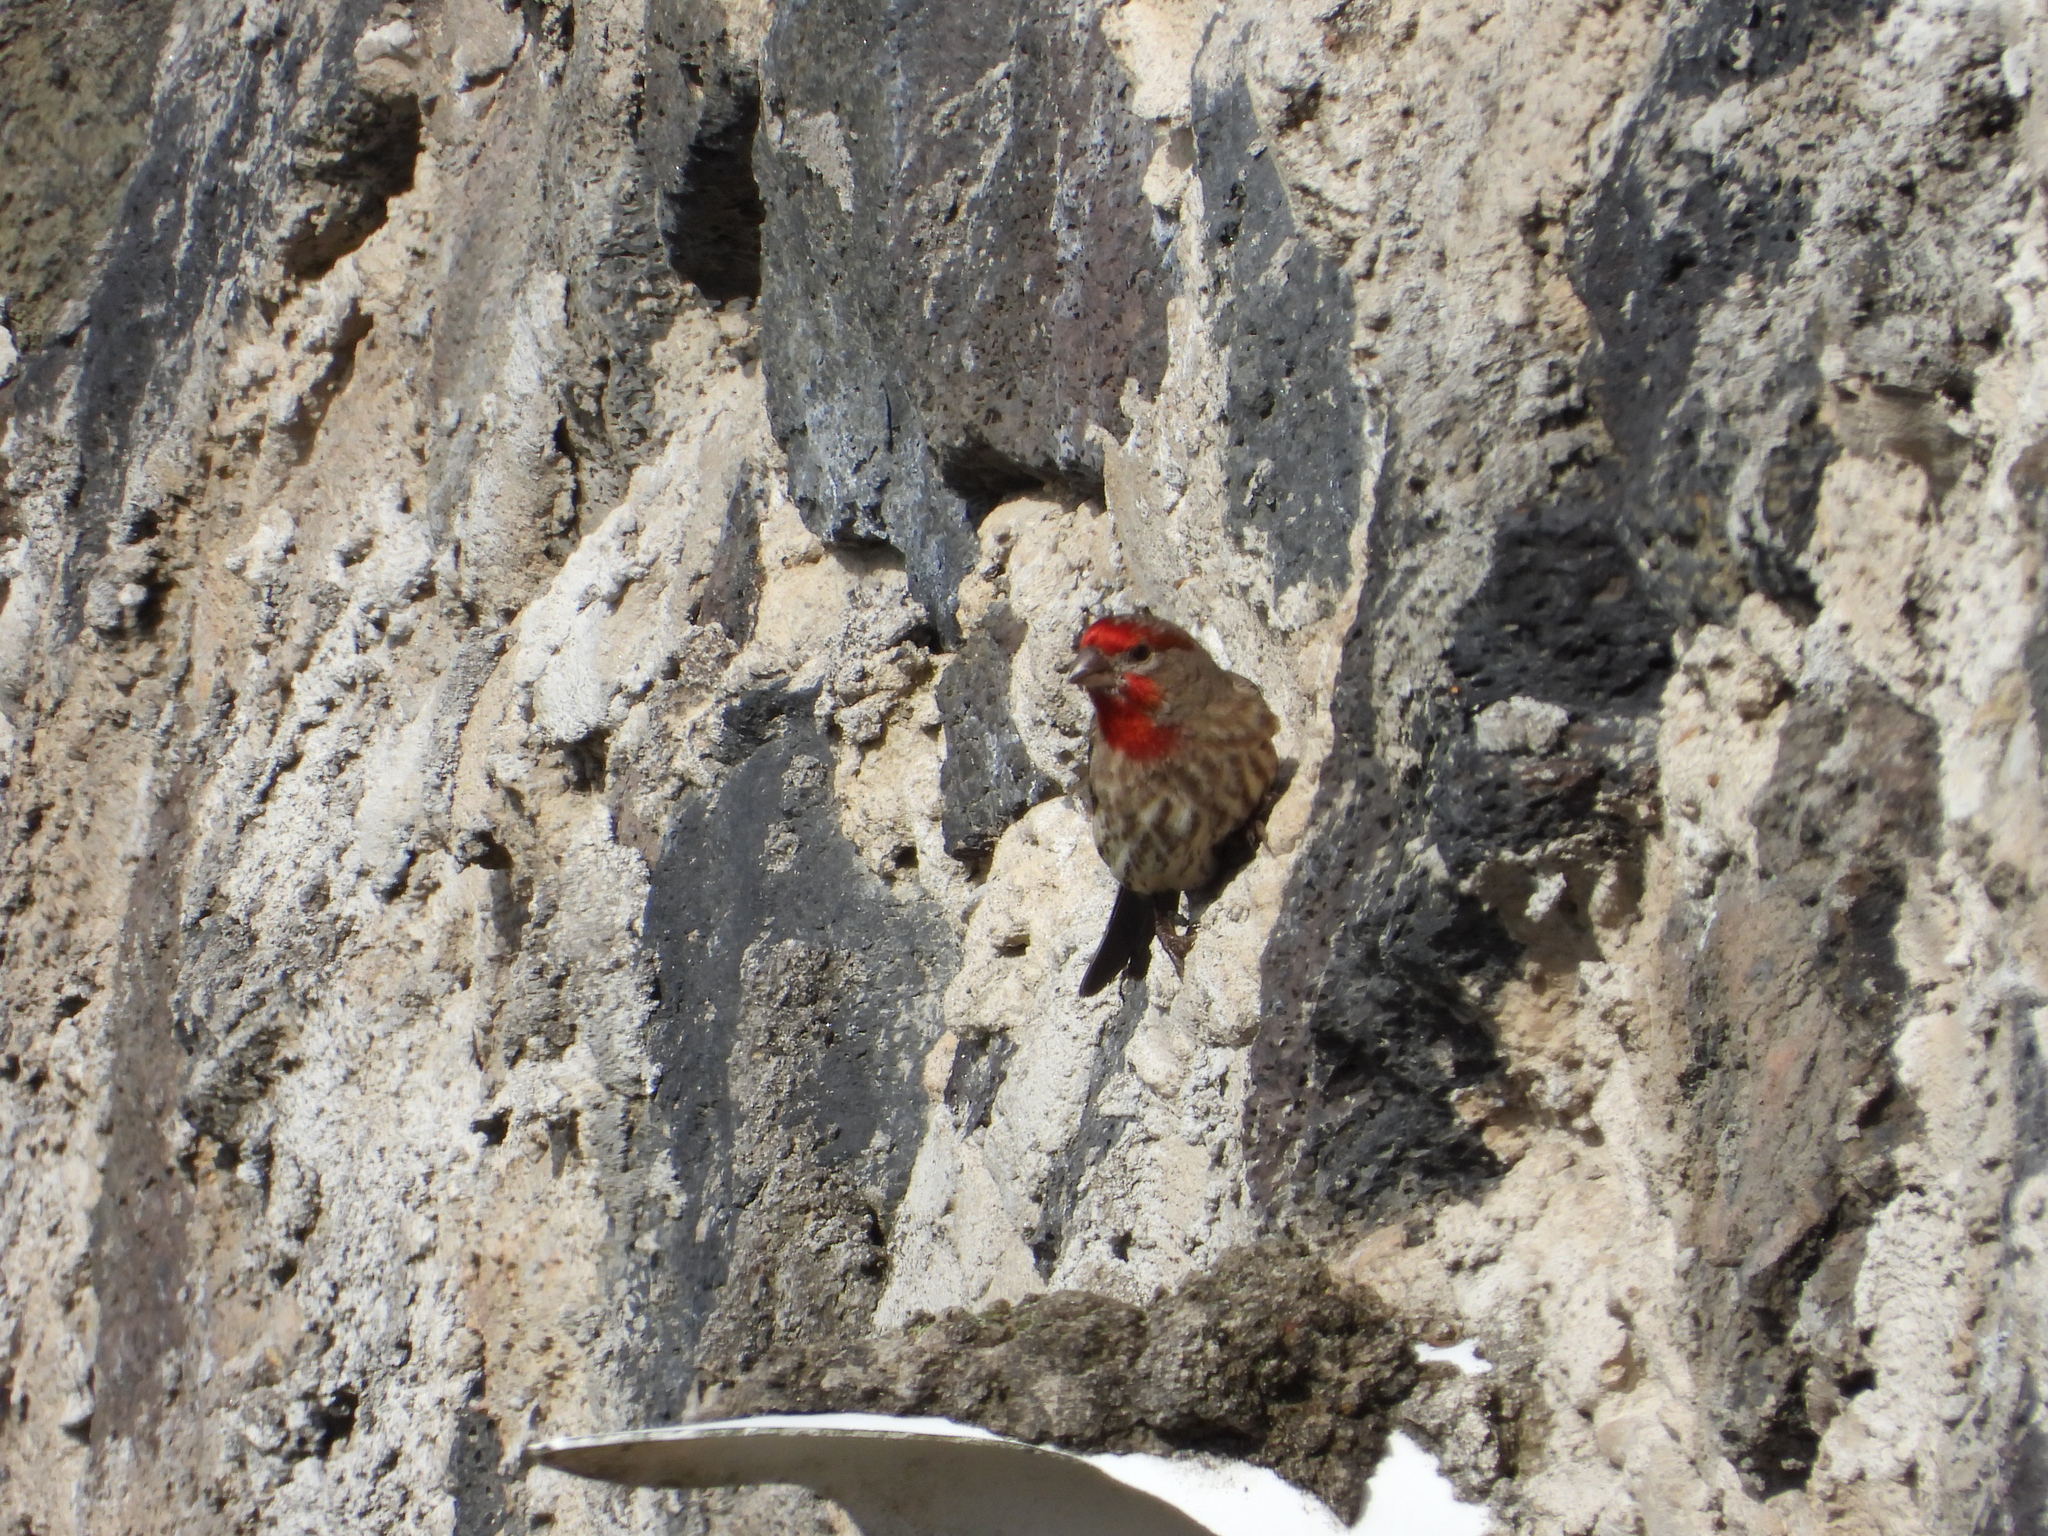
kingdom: Animalia
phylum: Chordata
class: Aves
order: Passeriformes
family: Fringillidae
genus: Haemorhous
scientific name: Haemorhous mexicanus
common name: House finch
